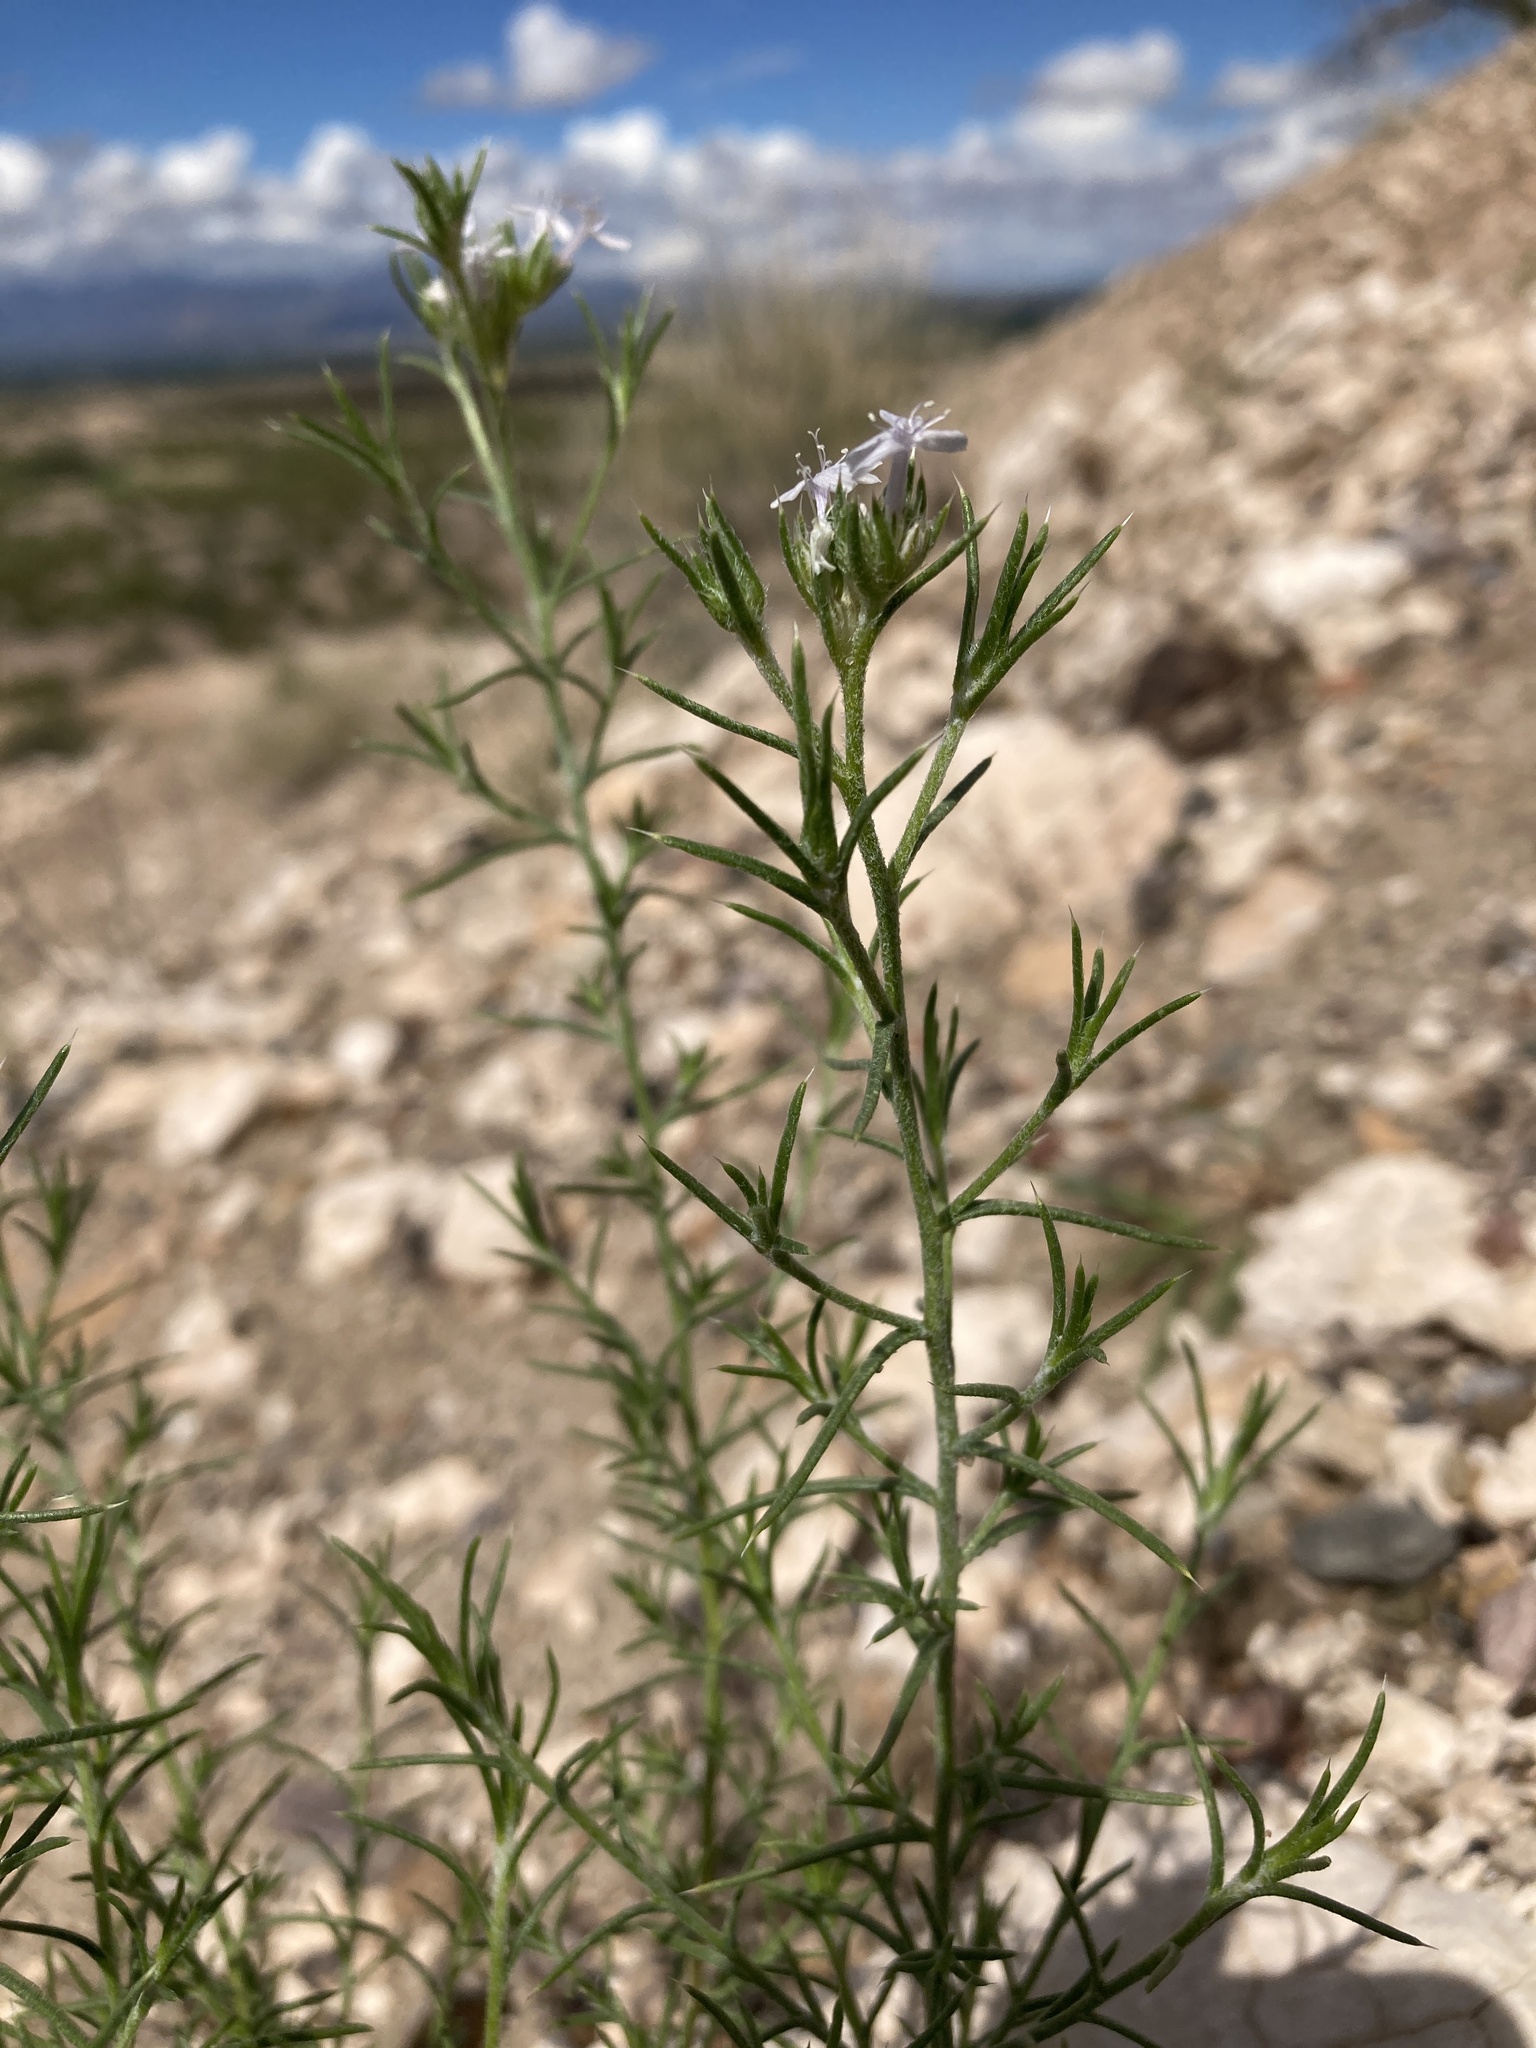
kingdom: Plantae
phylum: Tracheophyta
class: Magnoliopsida
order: Ericales
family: Polemoniaceae
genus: Ipomopsis
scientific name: Ipomopsis wrightii
